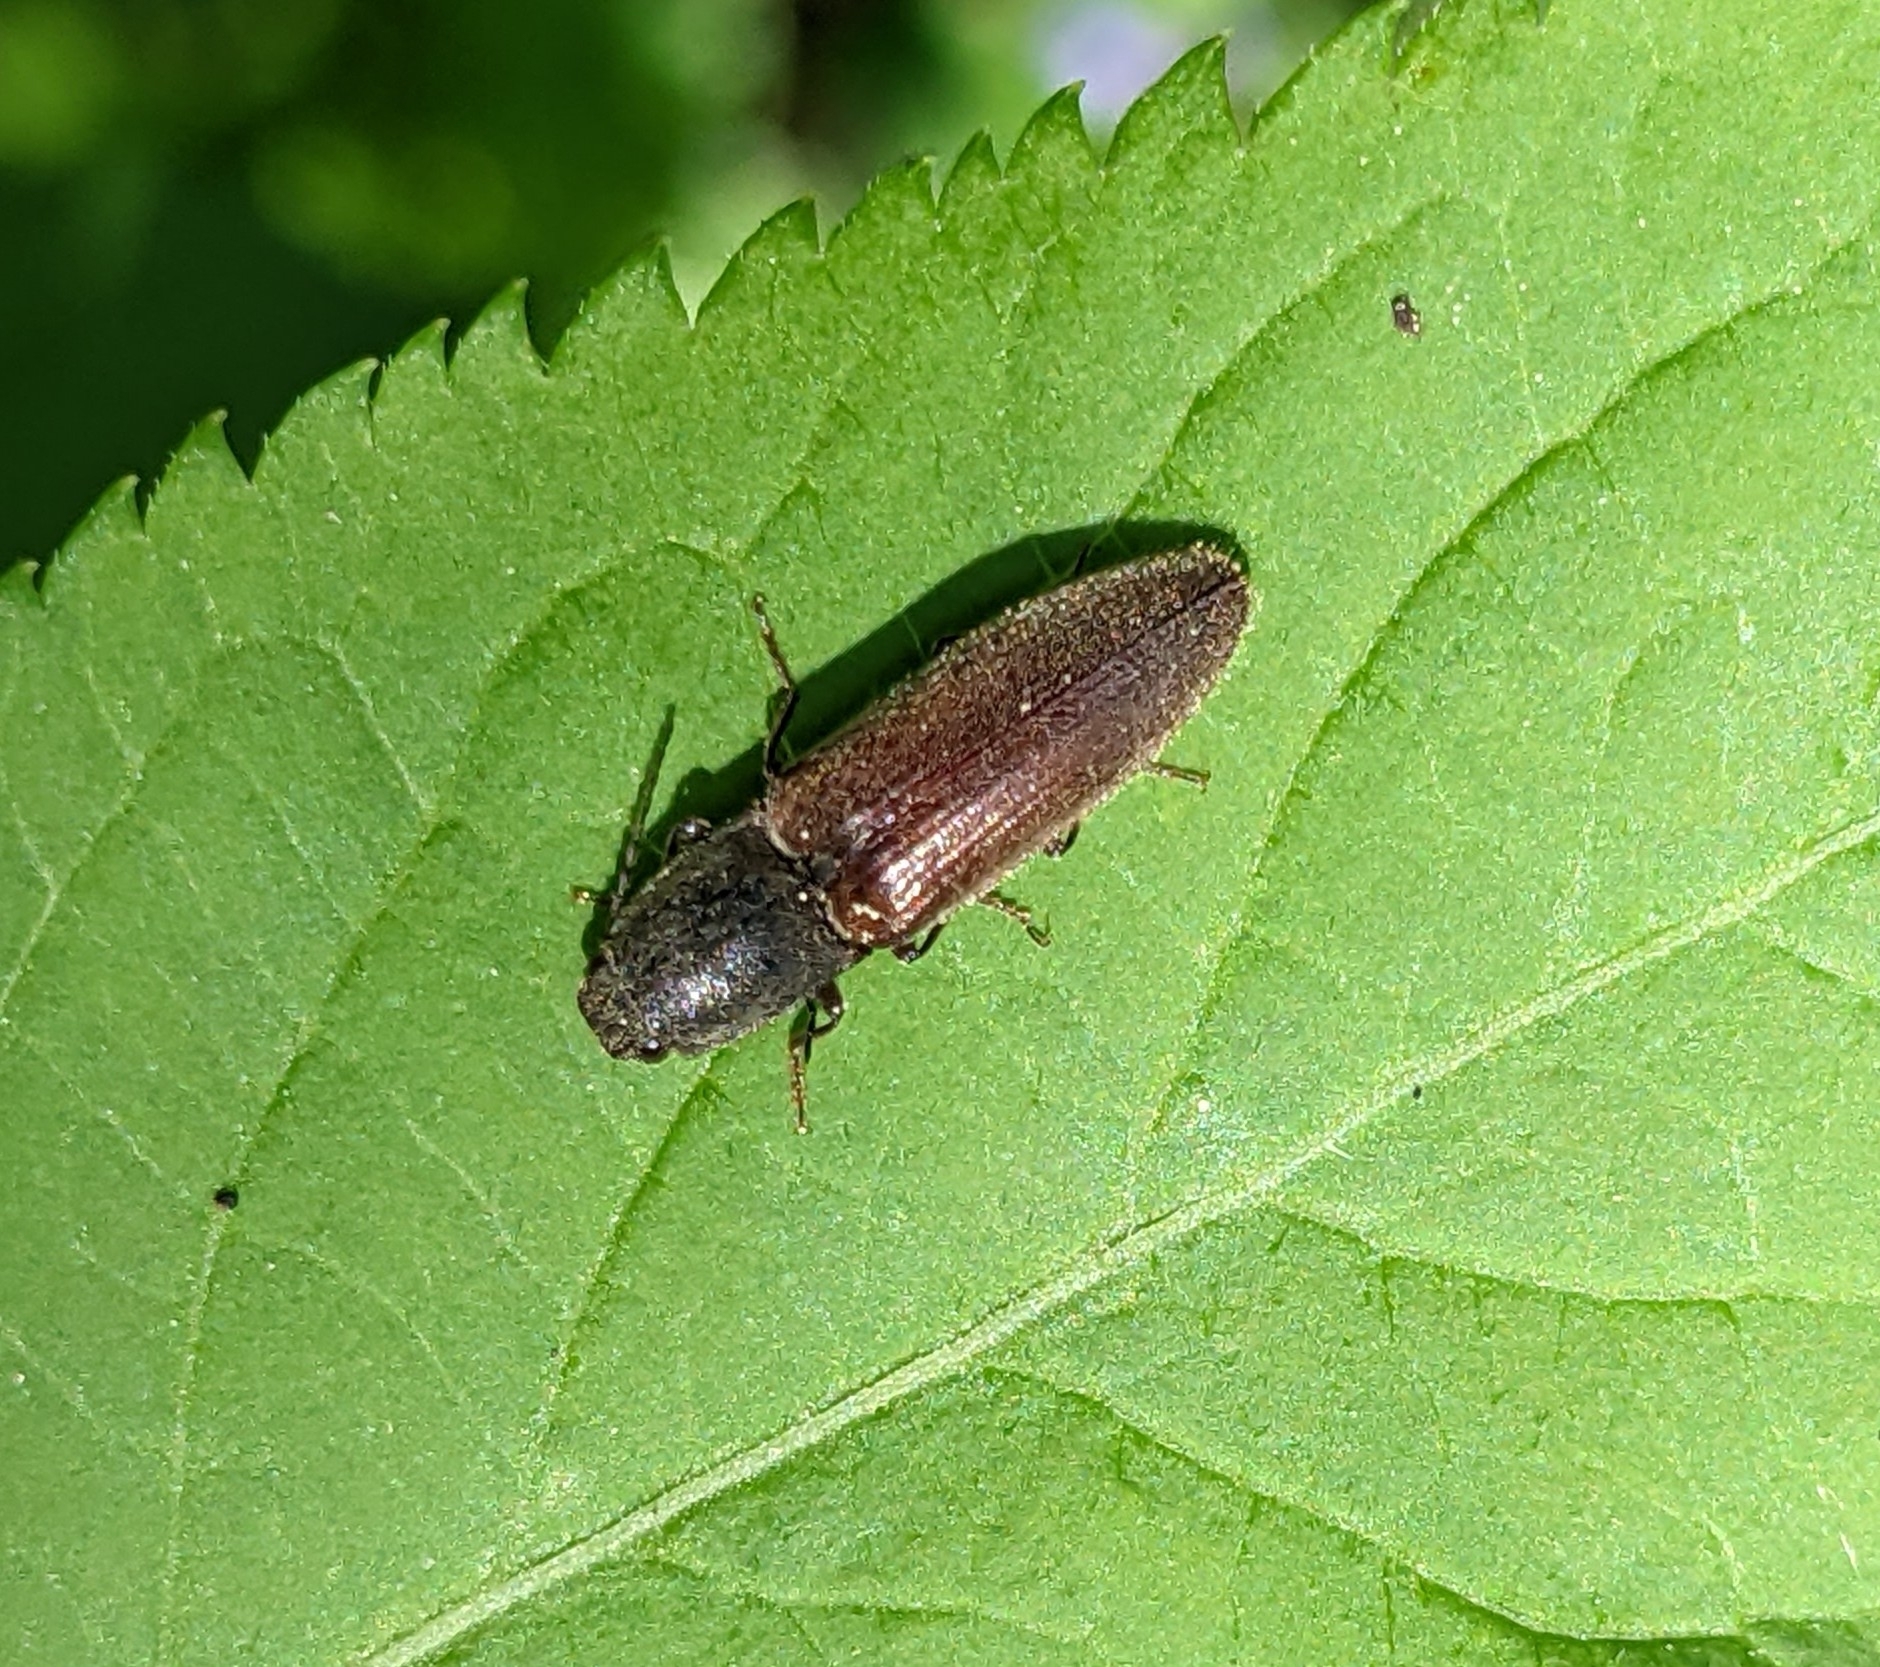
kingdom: Animalia
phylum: Arthropoda
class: Insecta
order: Coleoptera
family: Elateridae
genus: Athous
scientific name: Athous haemorrhoidalis
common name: Red-brown click beetle
